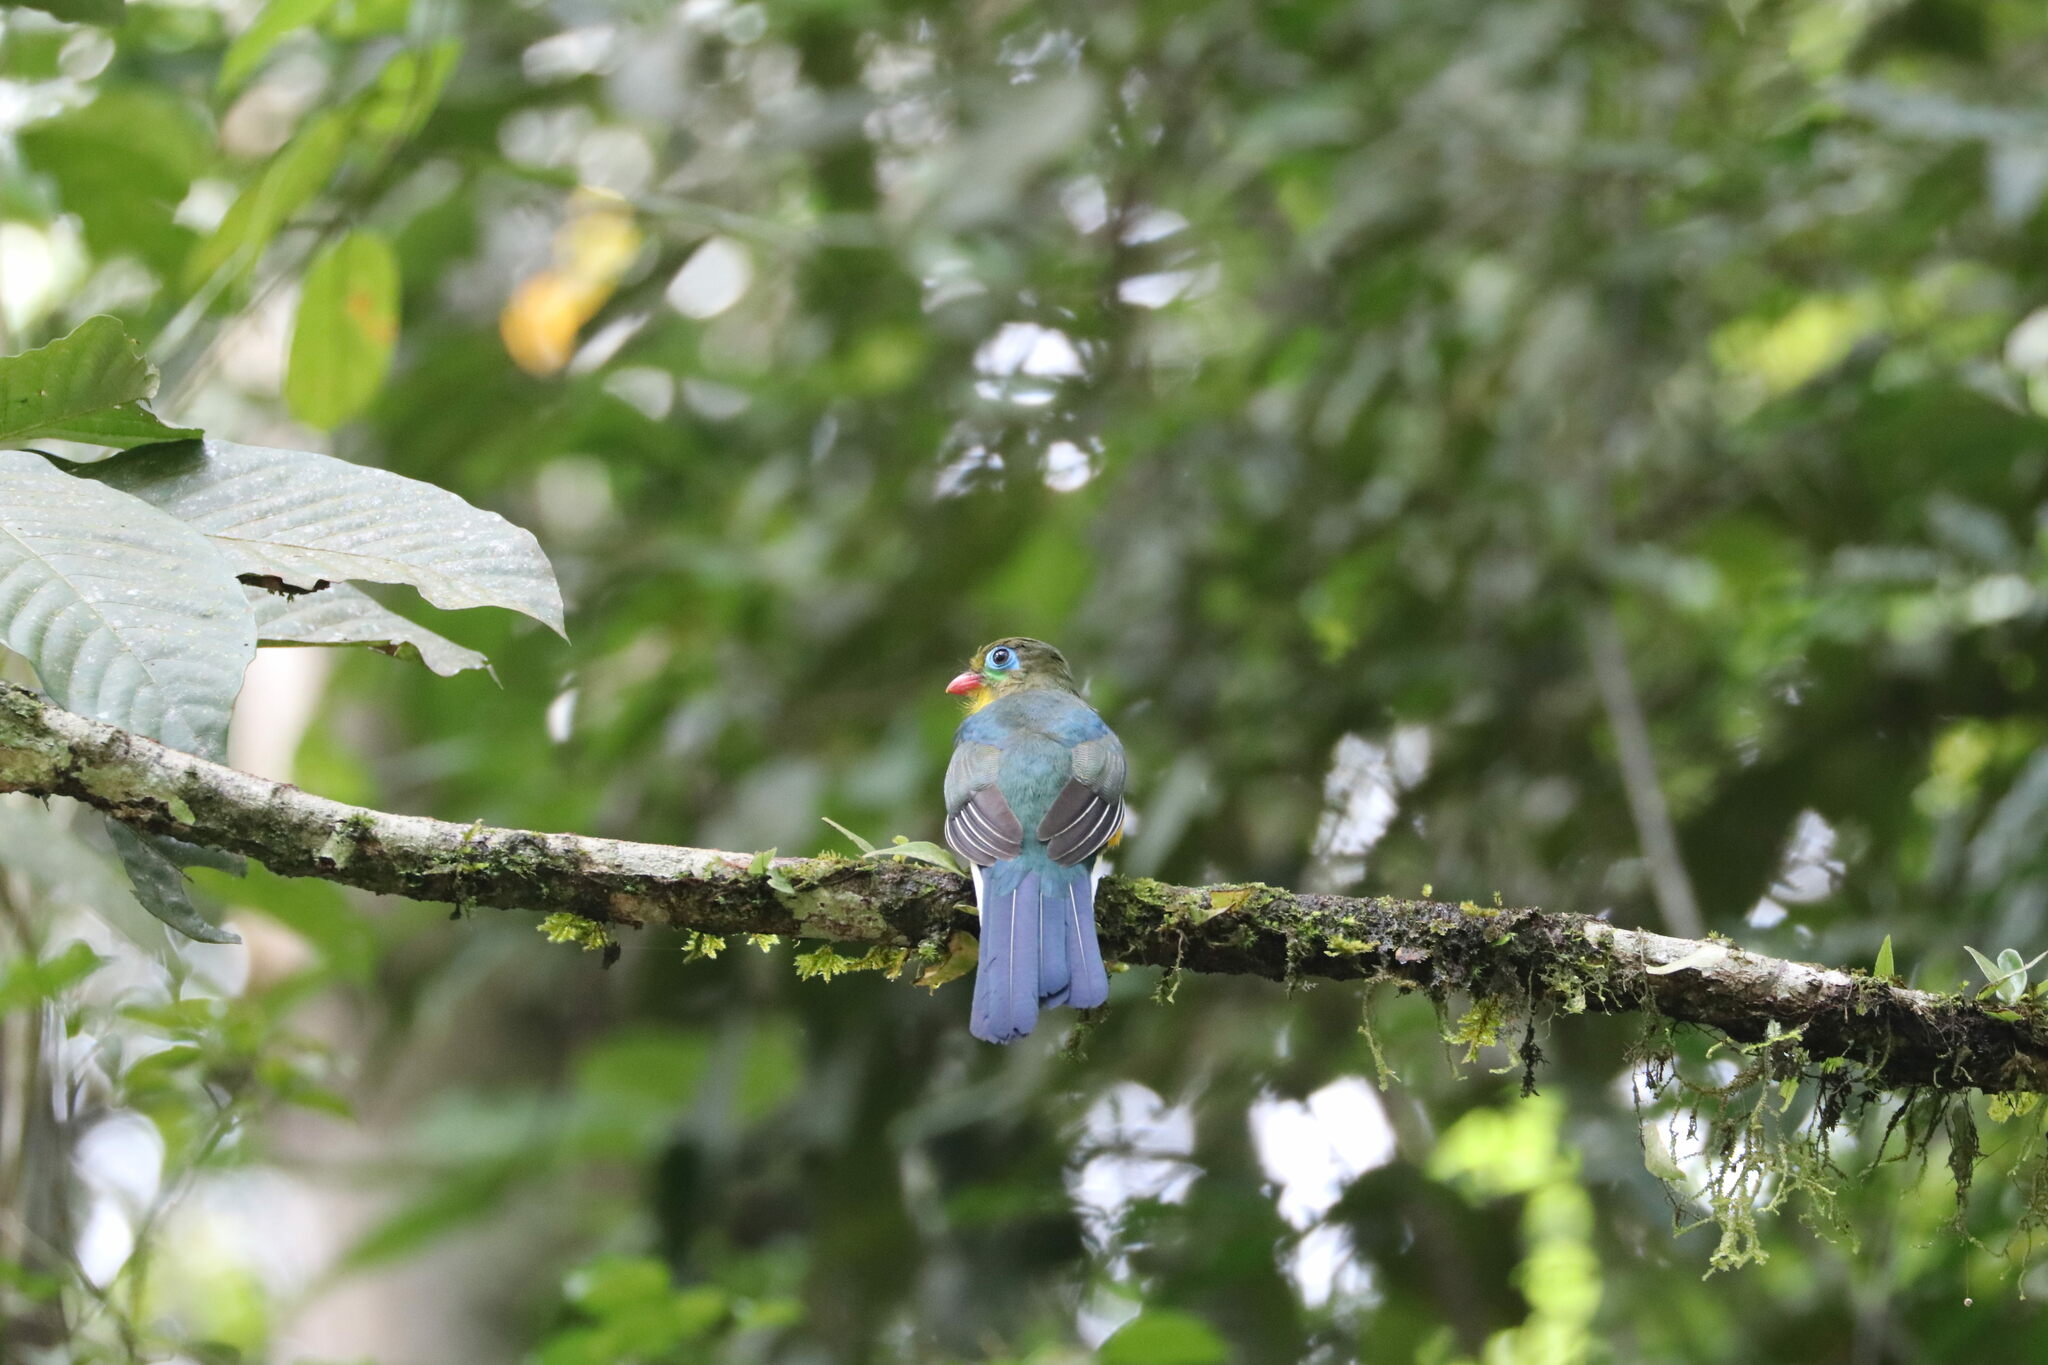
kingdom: Animalia
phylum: Chordata
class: Aves
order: Trogoniformes
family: Trogonidae
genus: Apalharpactes
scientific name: Apalharpactes mackloti
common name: Sumatran trogon
